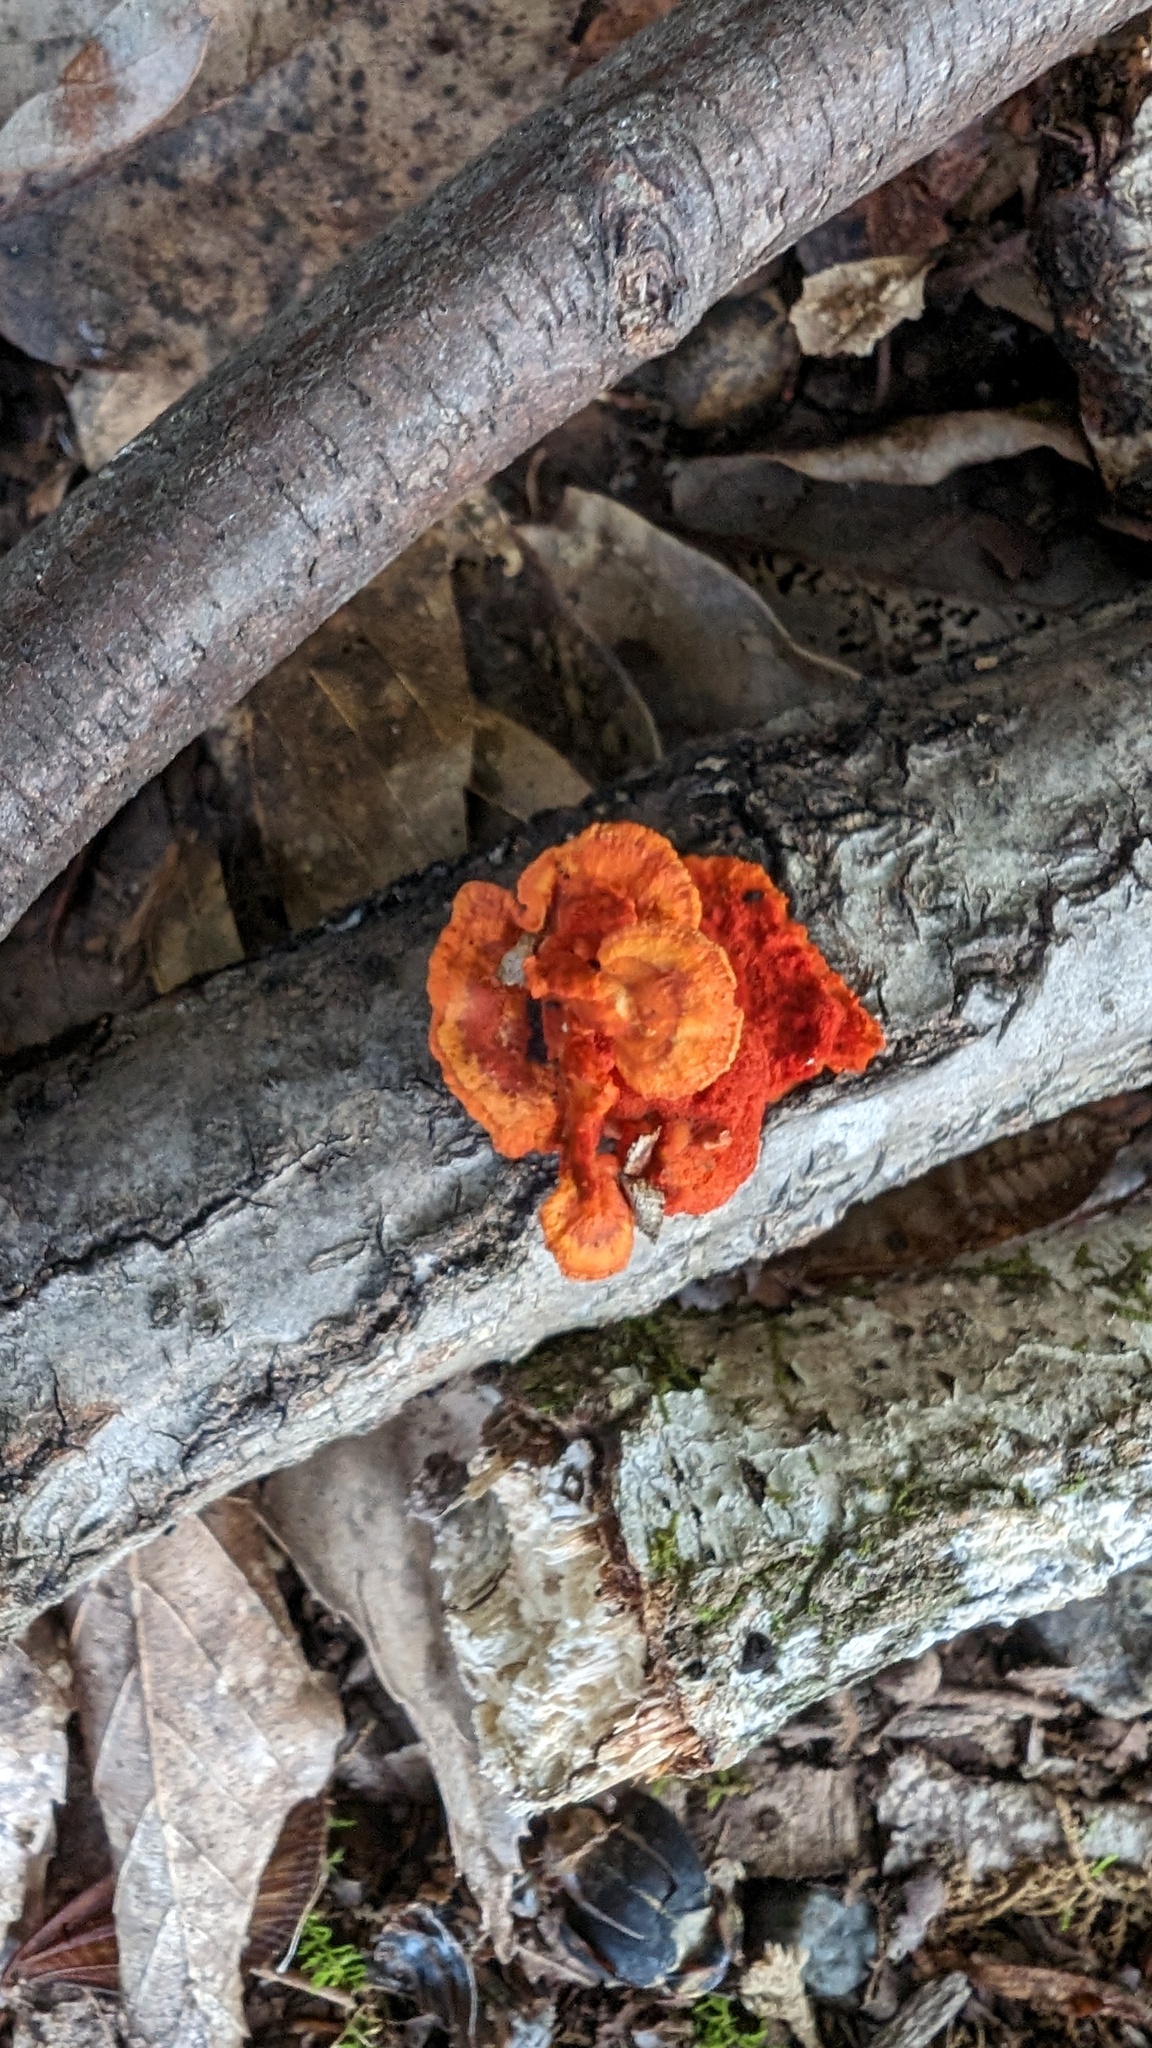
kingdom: Fungi
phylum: Basidiomycota
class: Agaricomycetes
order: Polyporales
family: Polyporaceae
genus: Trametes
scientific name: Trametes coccinea
